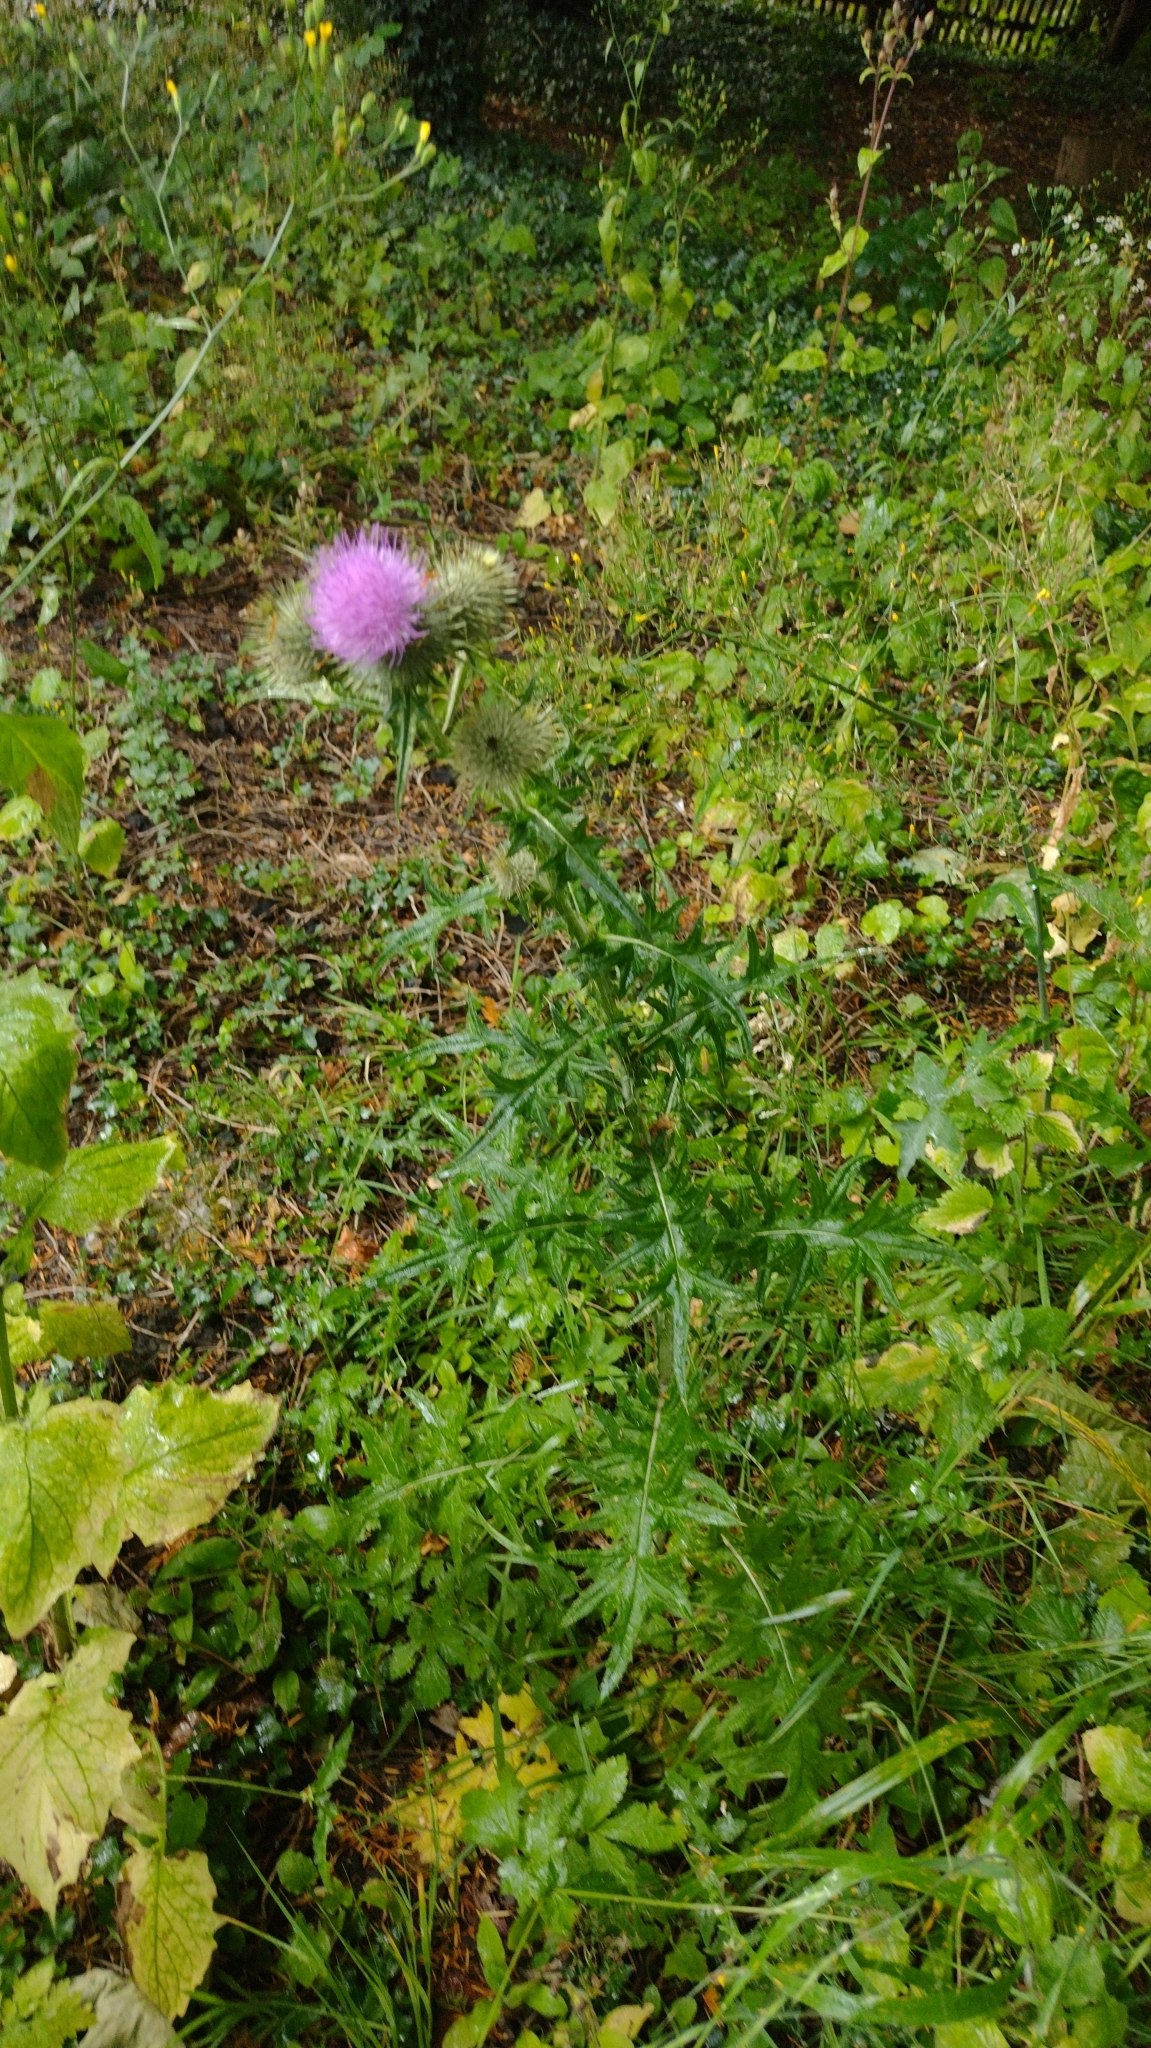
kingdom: Plantae
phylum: Tracheophyta
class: Magnoliopsida
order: Asterales
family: Asteraceae
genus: Cirsium
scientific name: Cirsium vulgare
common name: Bull thistle
